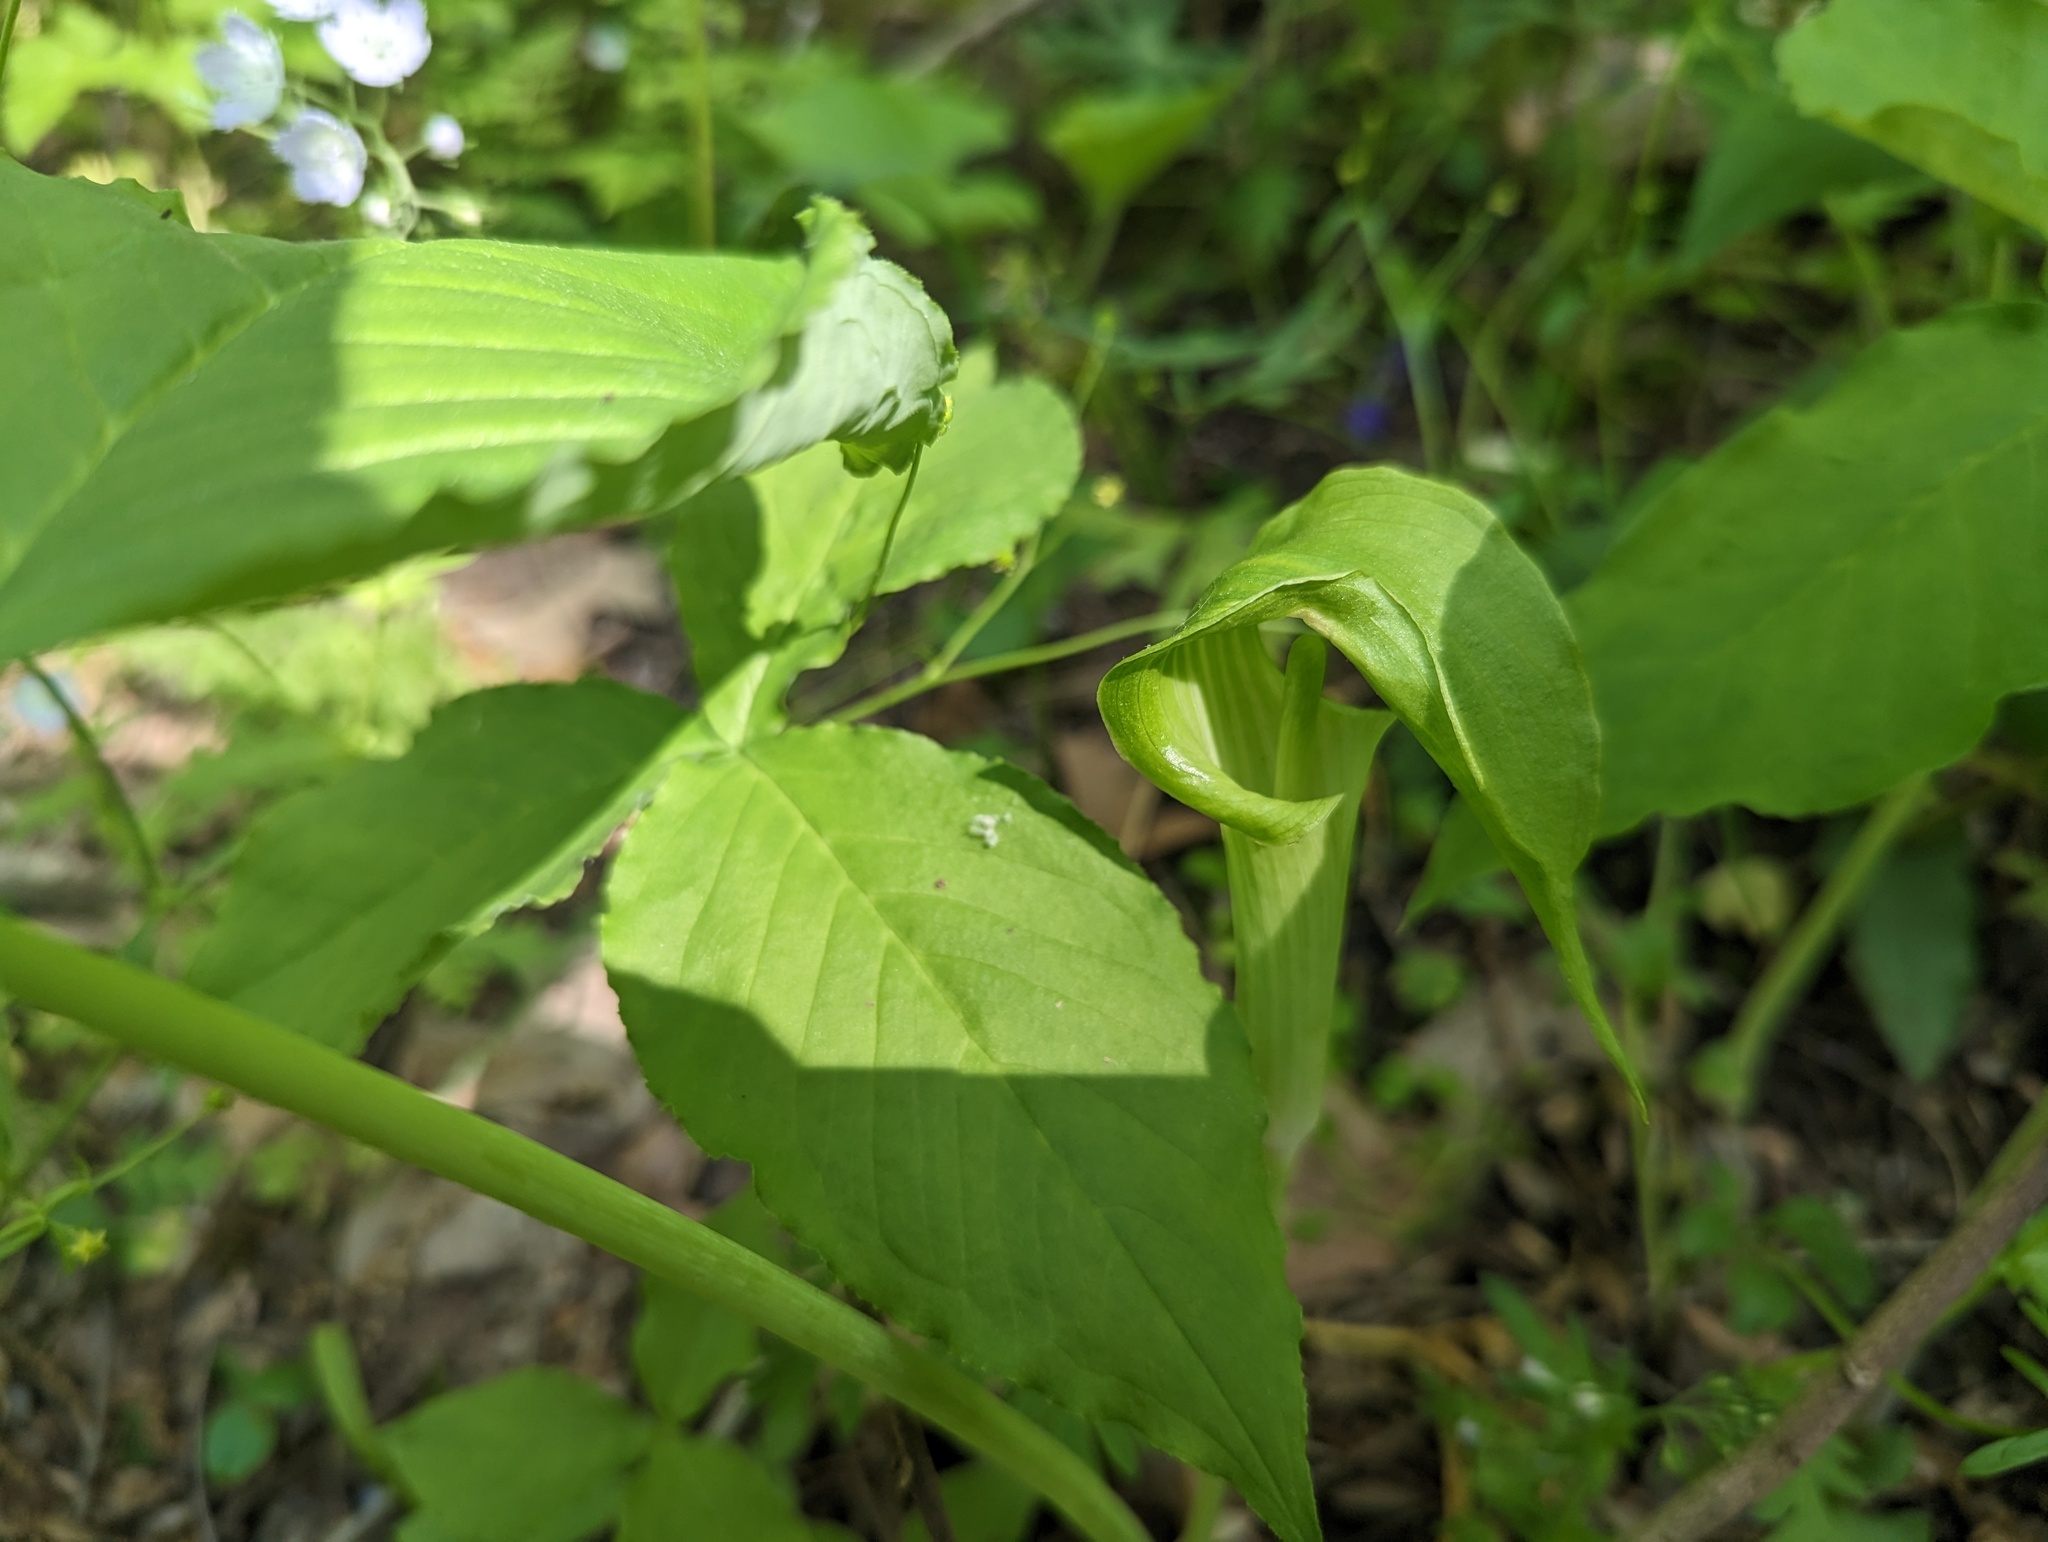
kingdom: Plantae
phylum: Tracheophyta
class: Liliopsida
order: Alismatales
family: Araceae
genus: Arisaema
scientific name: Arisaema triphyllum
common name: Jack-in-the-pulpit
